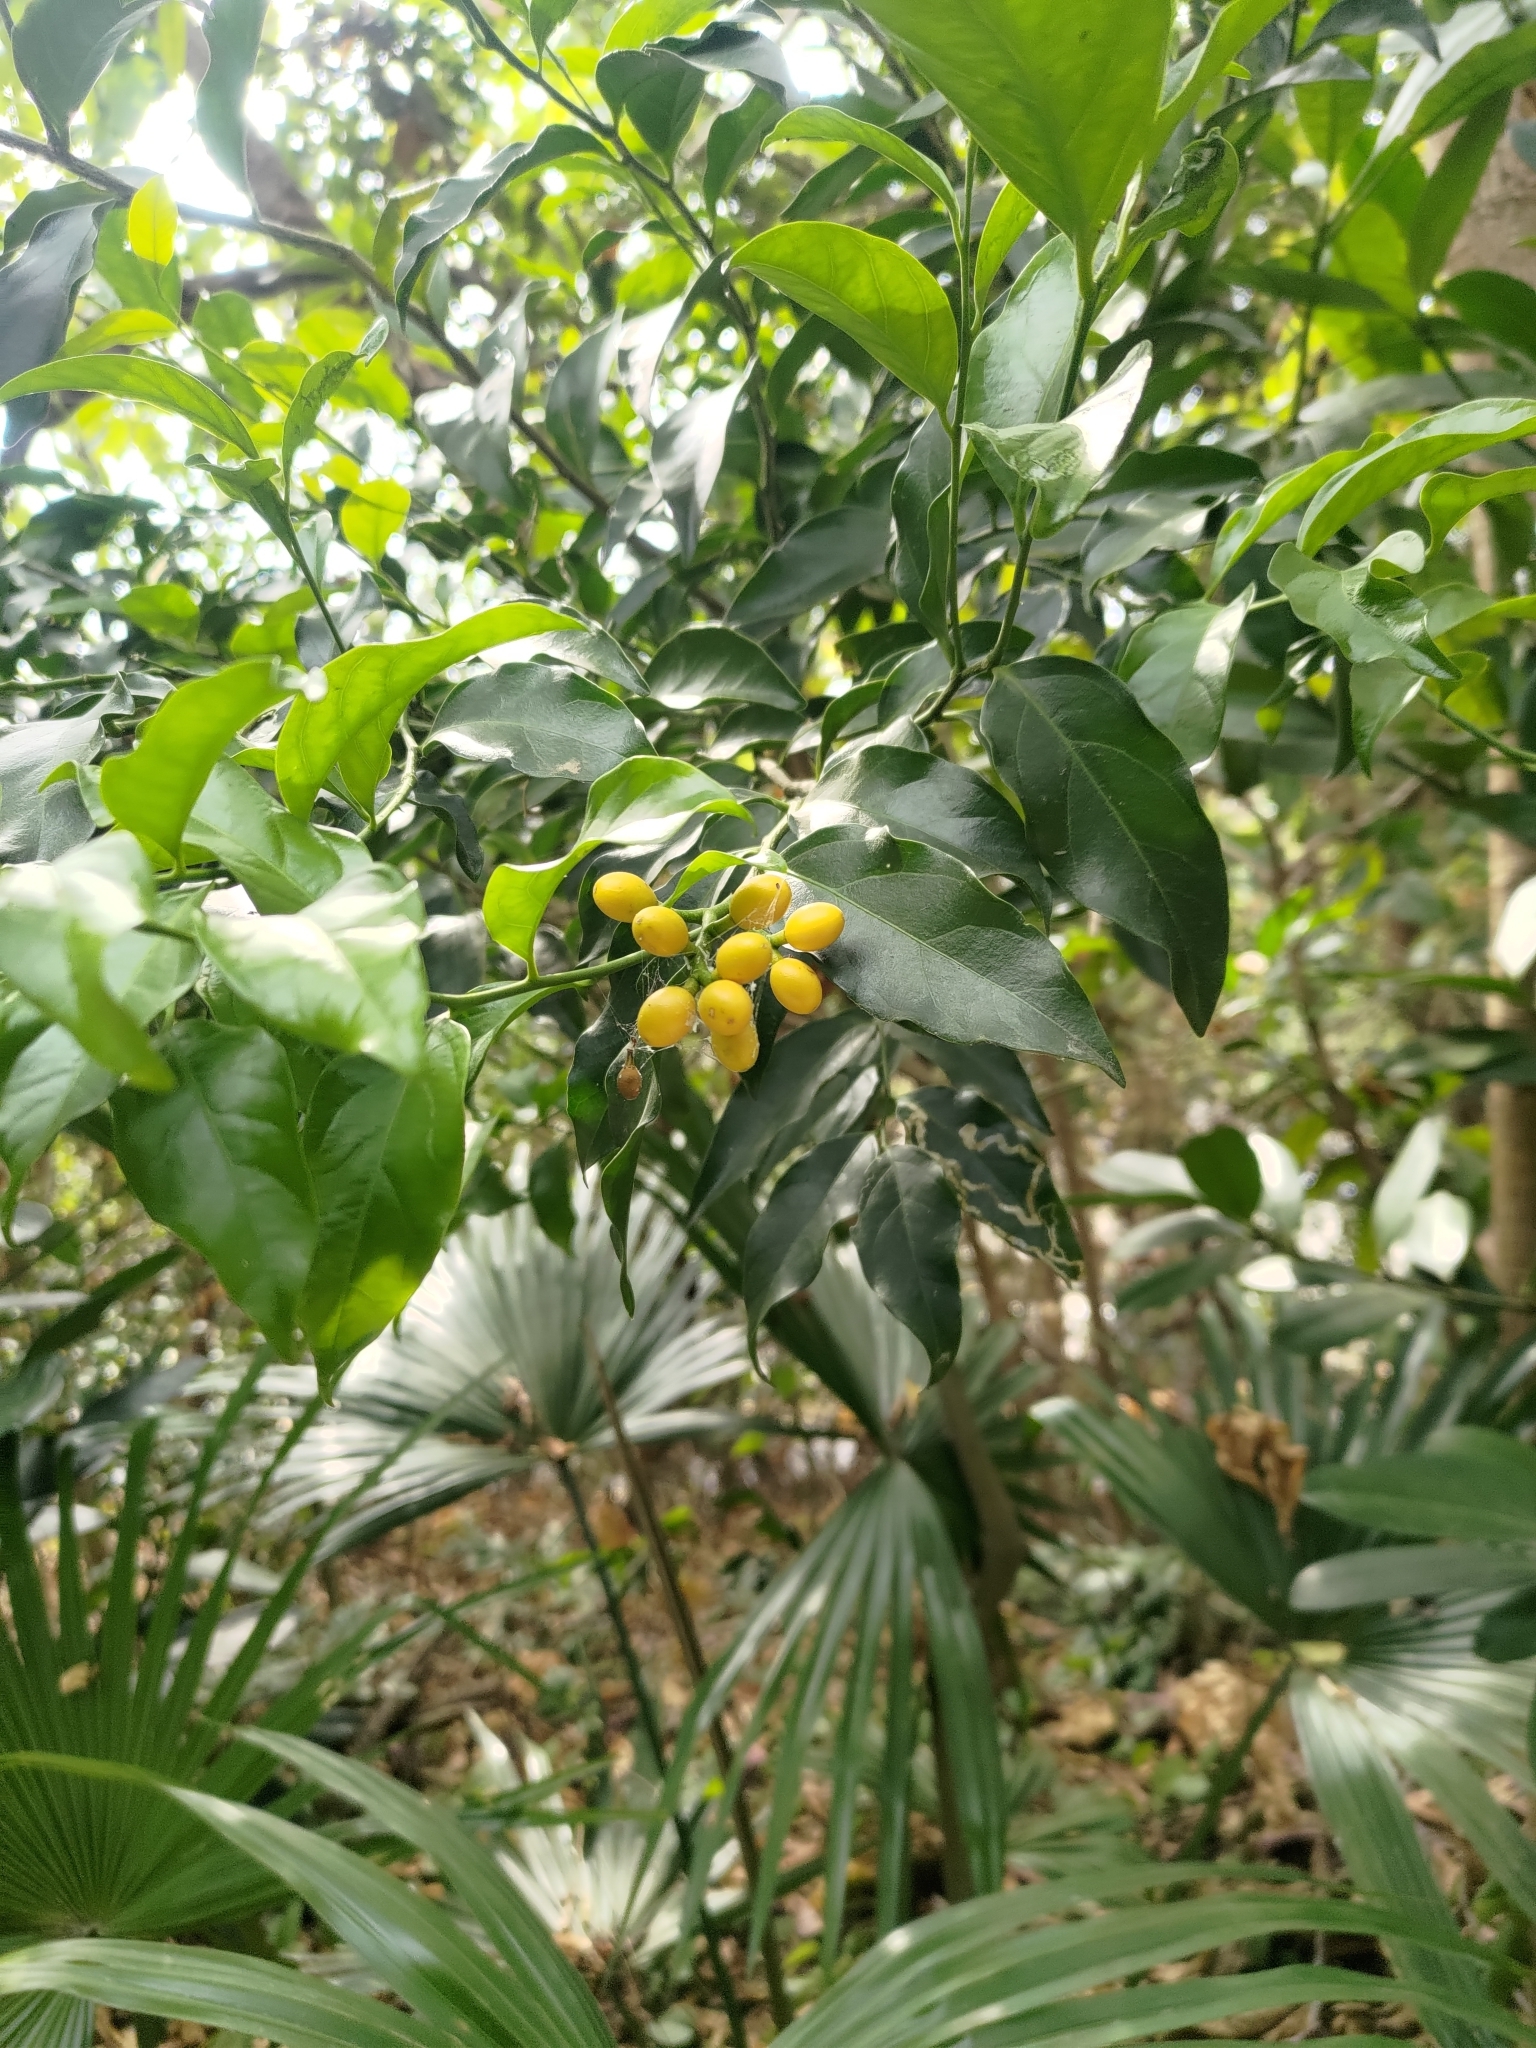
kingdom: Plantae
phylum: Tracheophyta
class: Magnoliopsida
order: Santalales
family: Opiliaceae
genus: Champereia
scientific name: Champereia manillana
